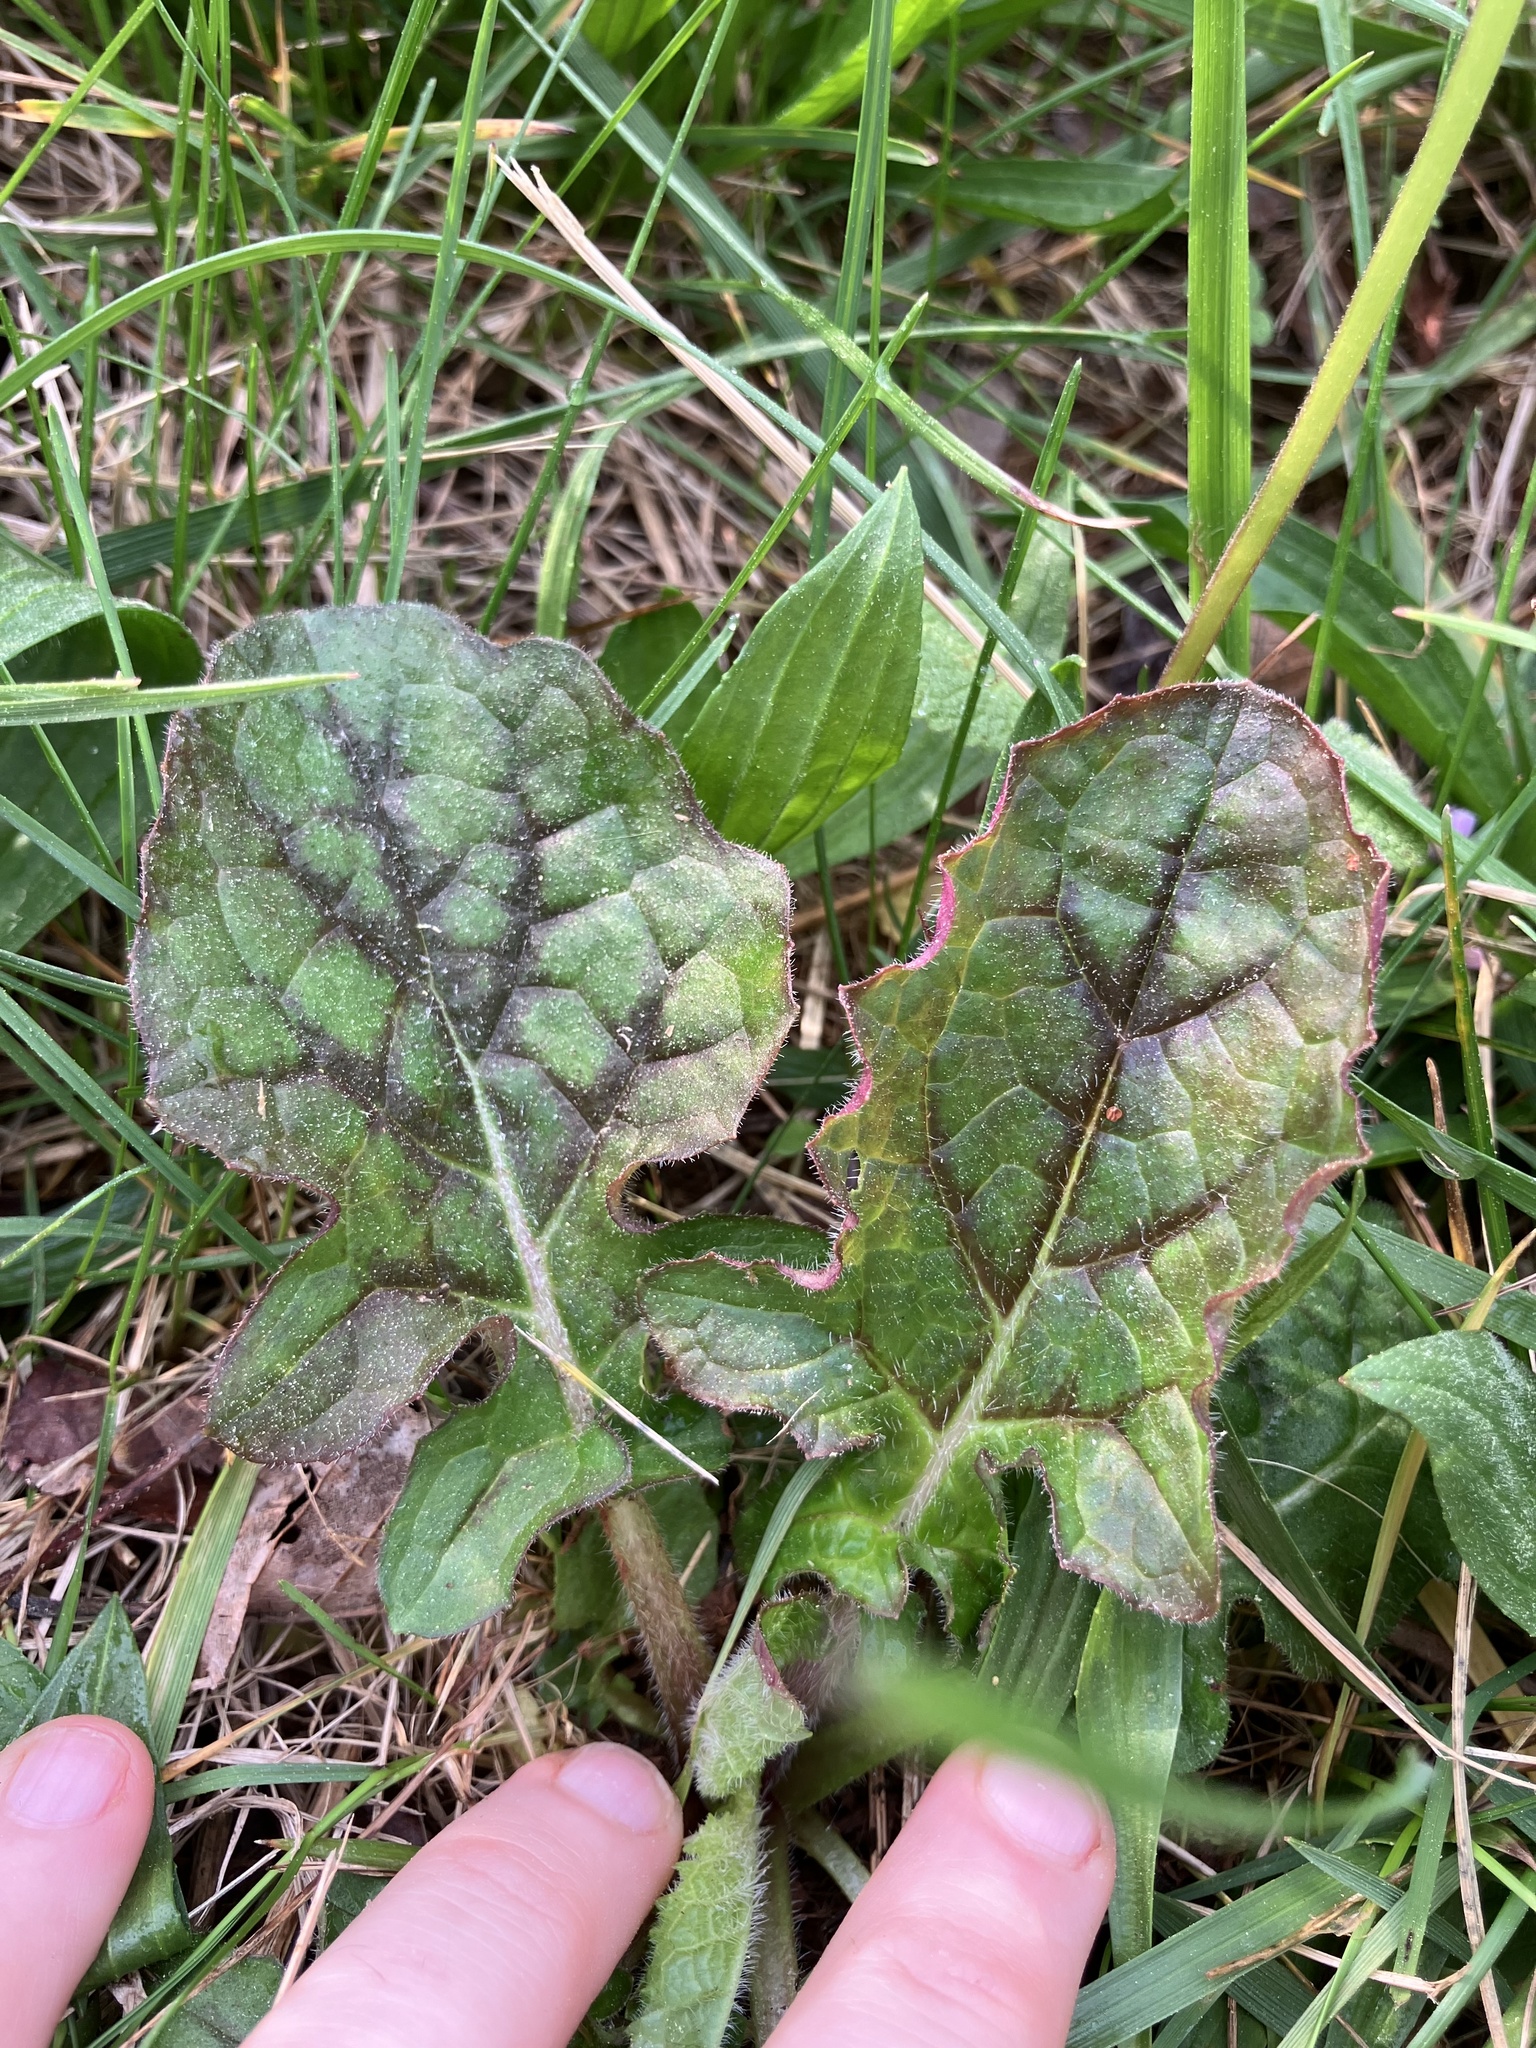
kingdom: Plantae
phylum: Tracheophyta
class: Magnoliopsida
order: Lamiales
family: Lamiaceae
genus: Salvia
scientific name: Salvia lyrata
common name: Cancerweed
